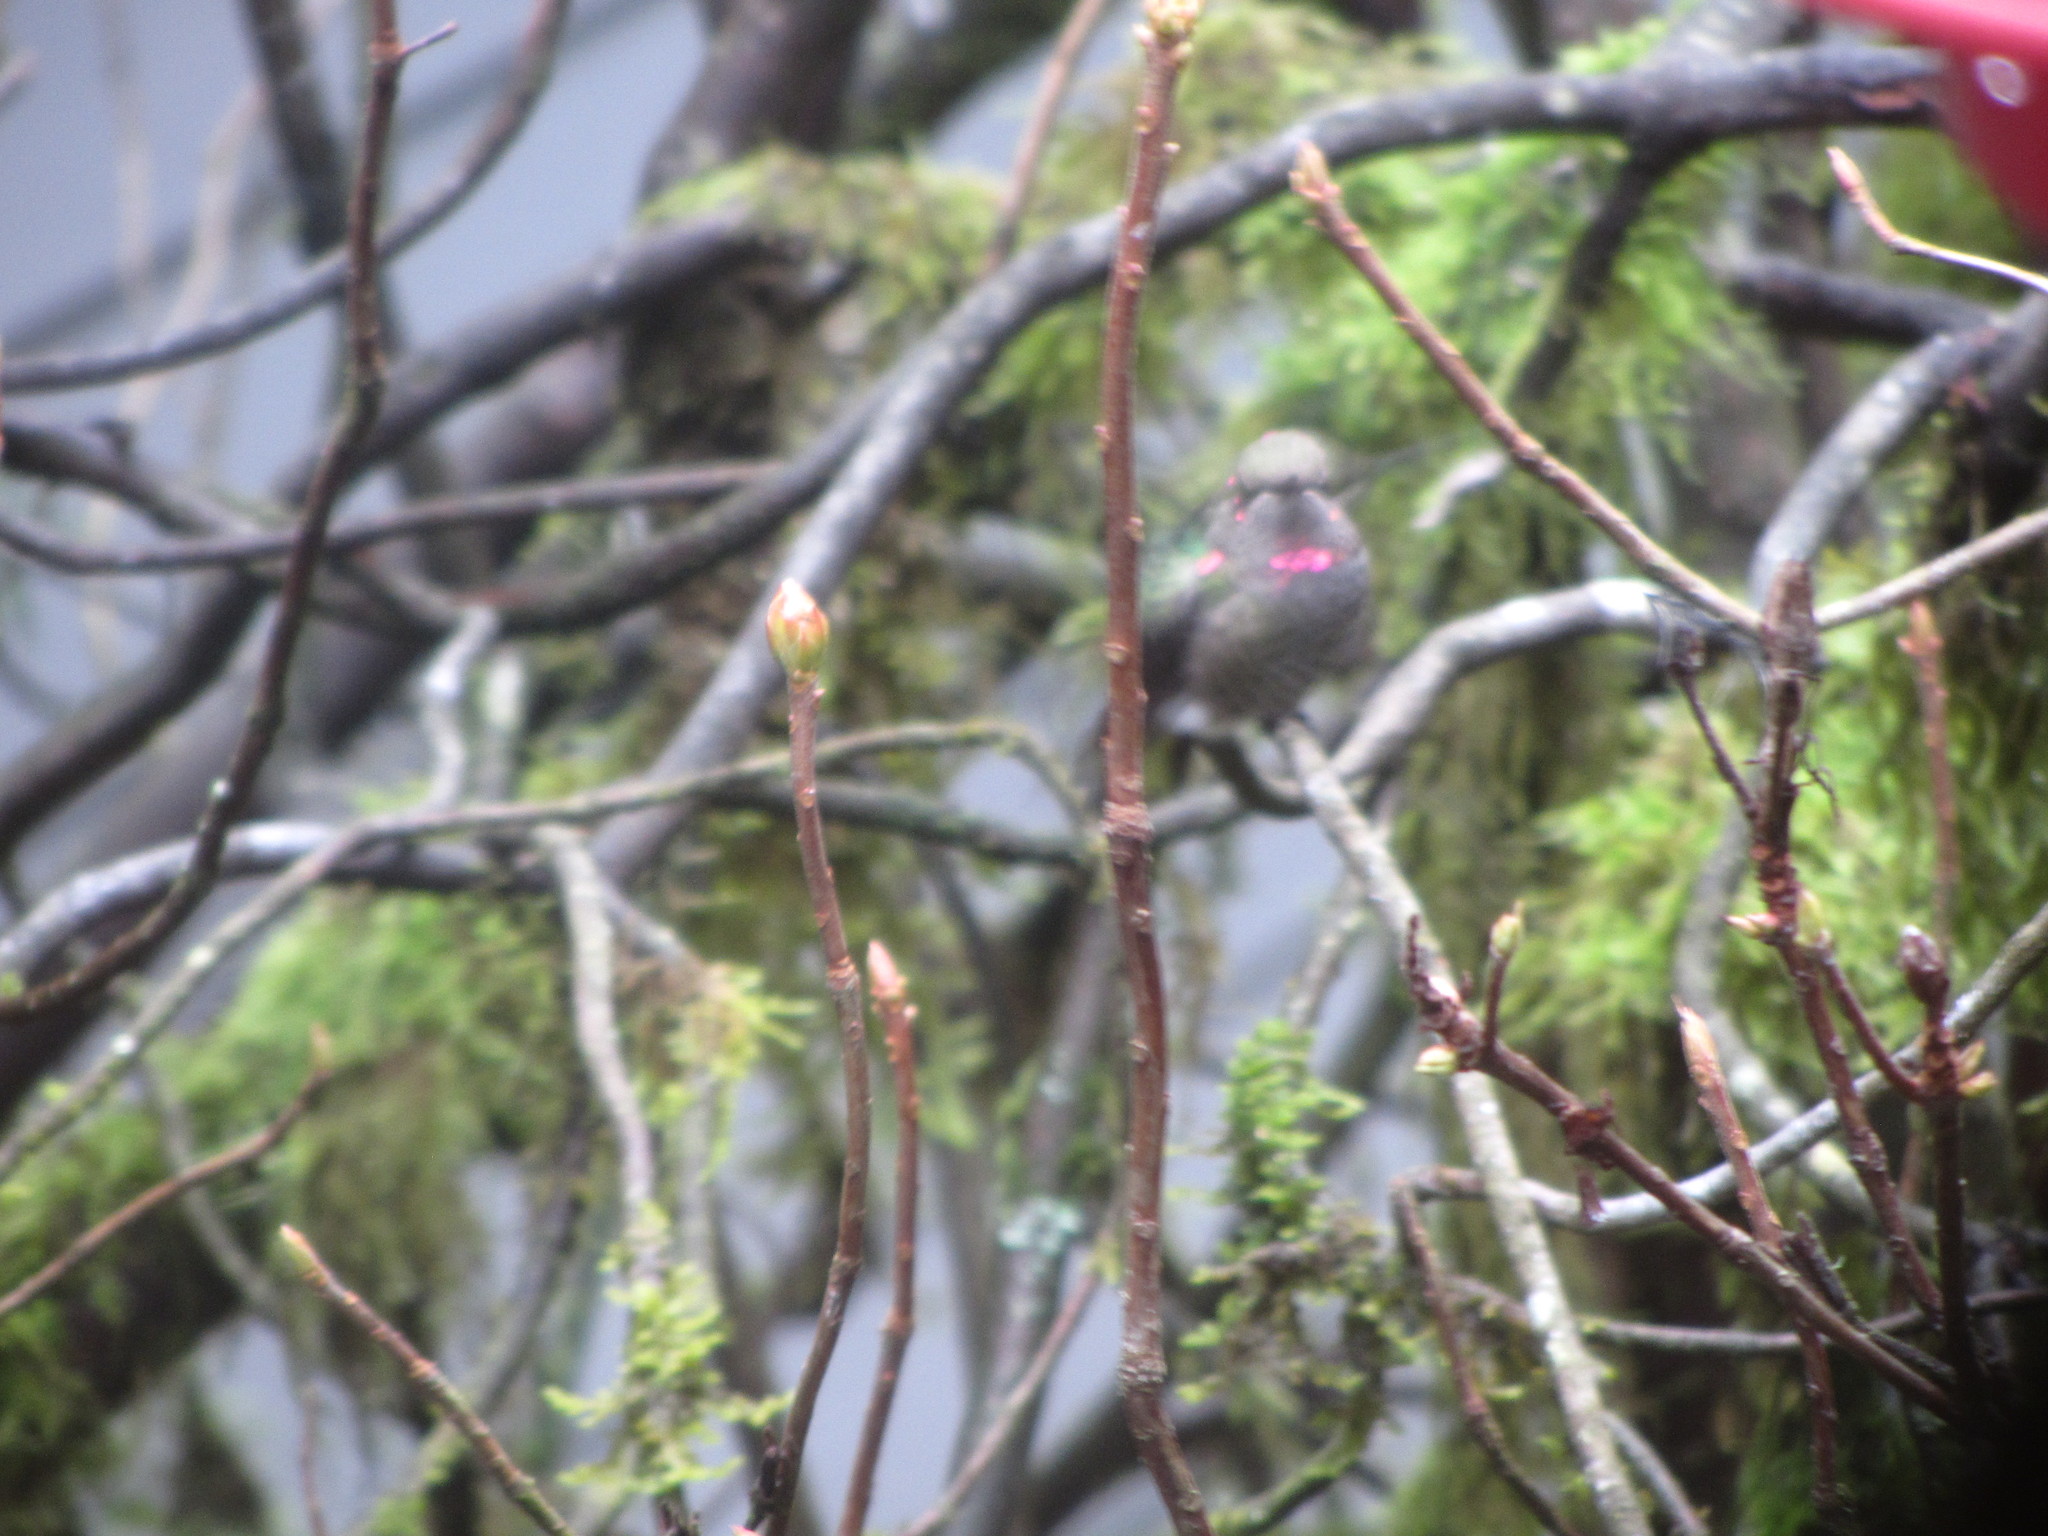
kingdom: Animalia
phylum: Chordata
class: Aves
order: Apodiformes
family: Trochilidae
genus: Calypte
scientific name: Calypte anna
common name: Anna's hummingbird
